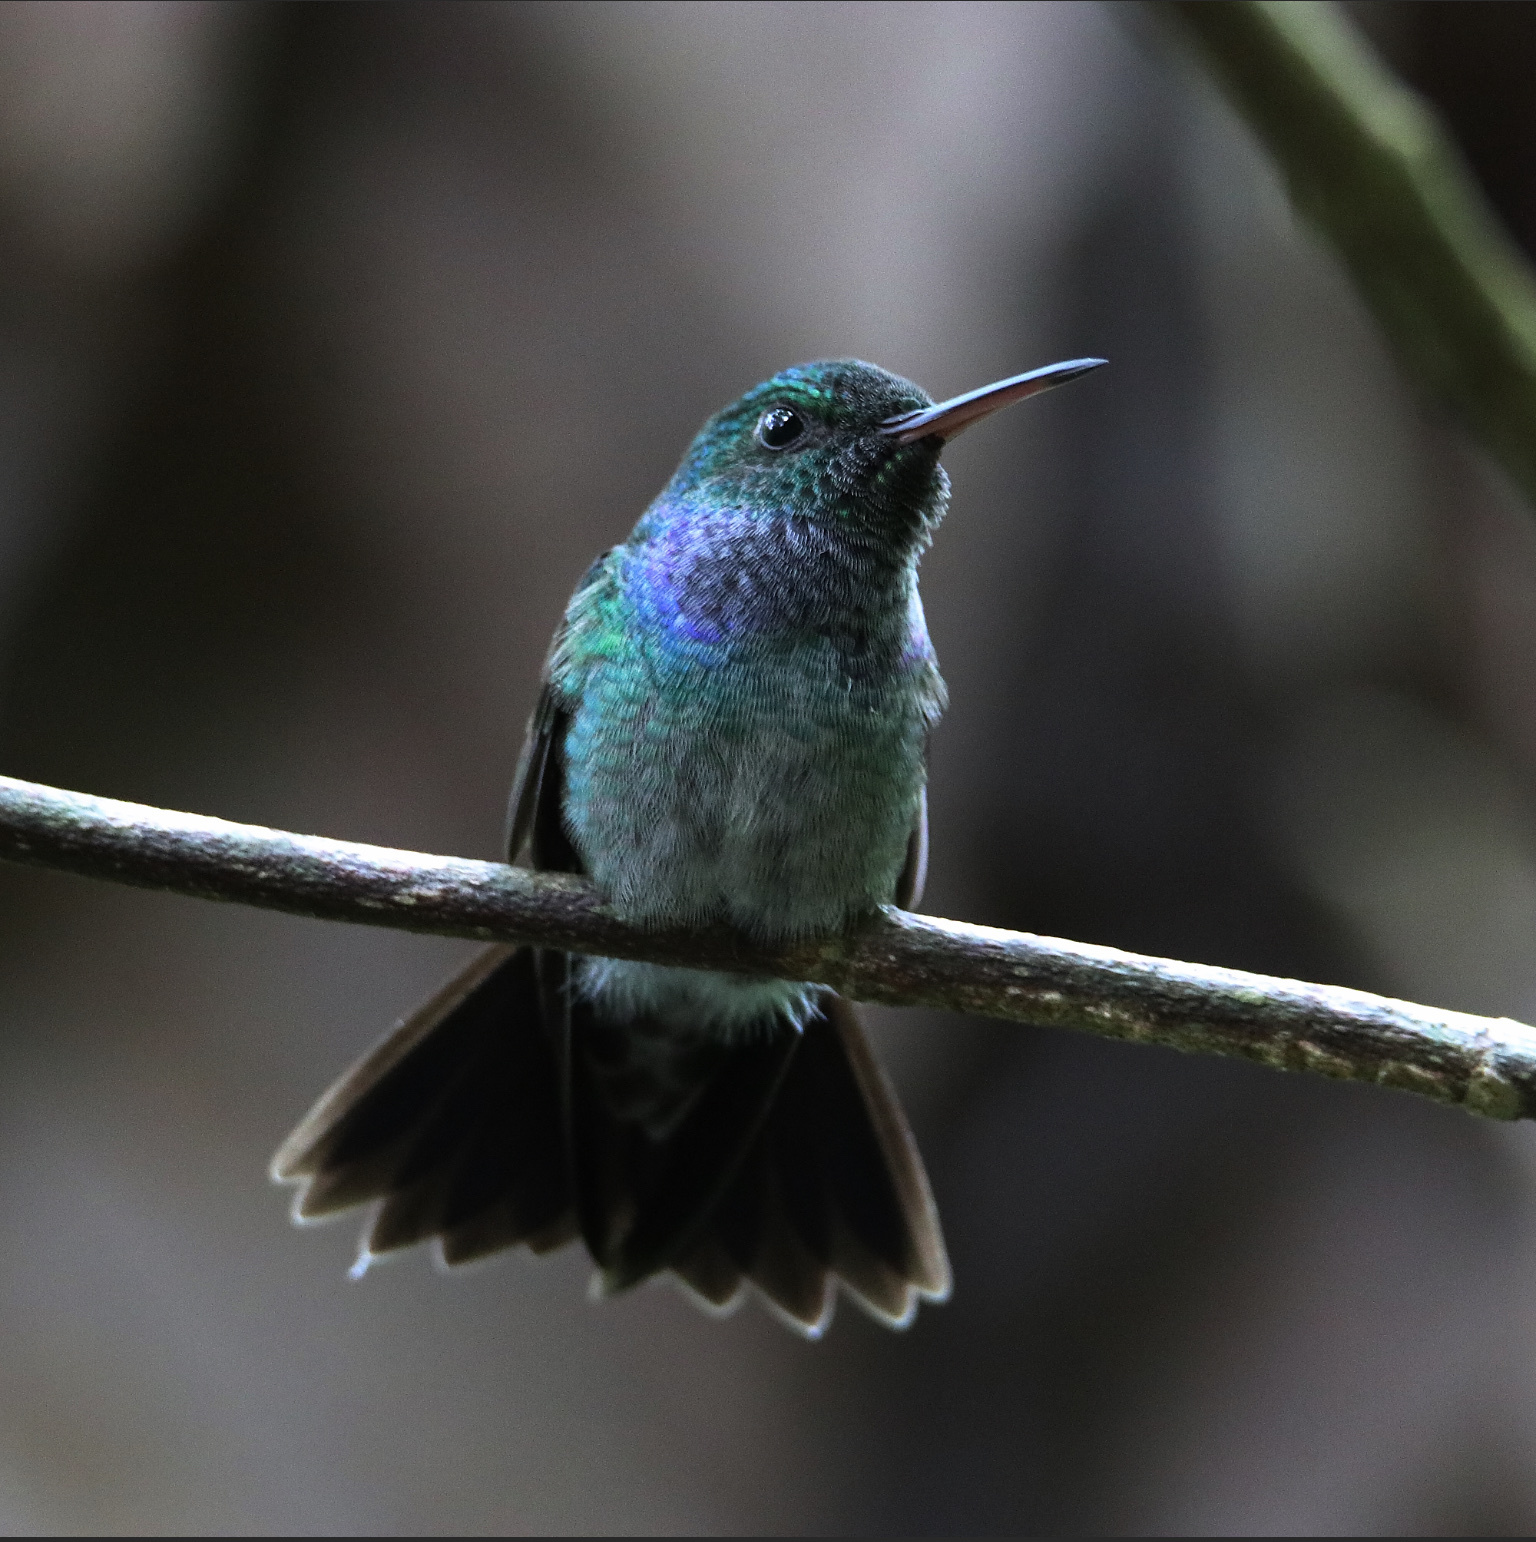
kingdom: Animalia
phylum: Chordata
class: Aves
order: Apodiformes
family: Trochilidae
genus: Polyerata
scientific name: Polyerata amabilis
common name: Blue-chested hummingbird
